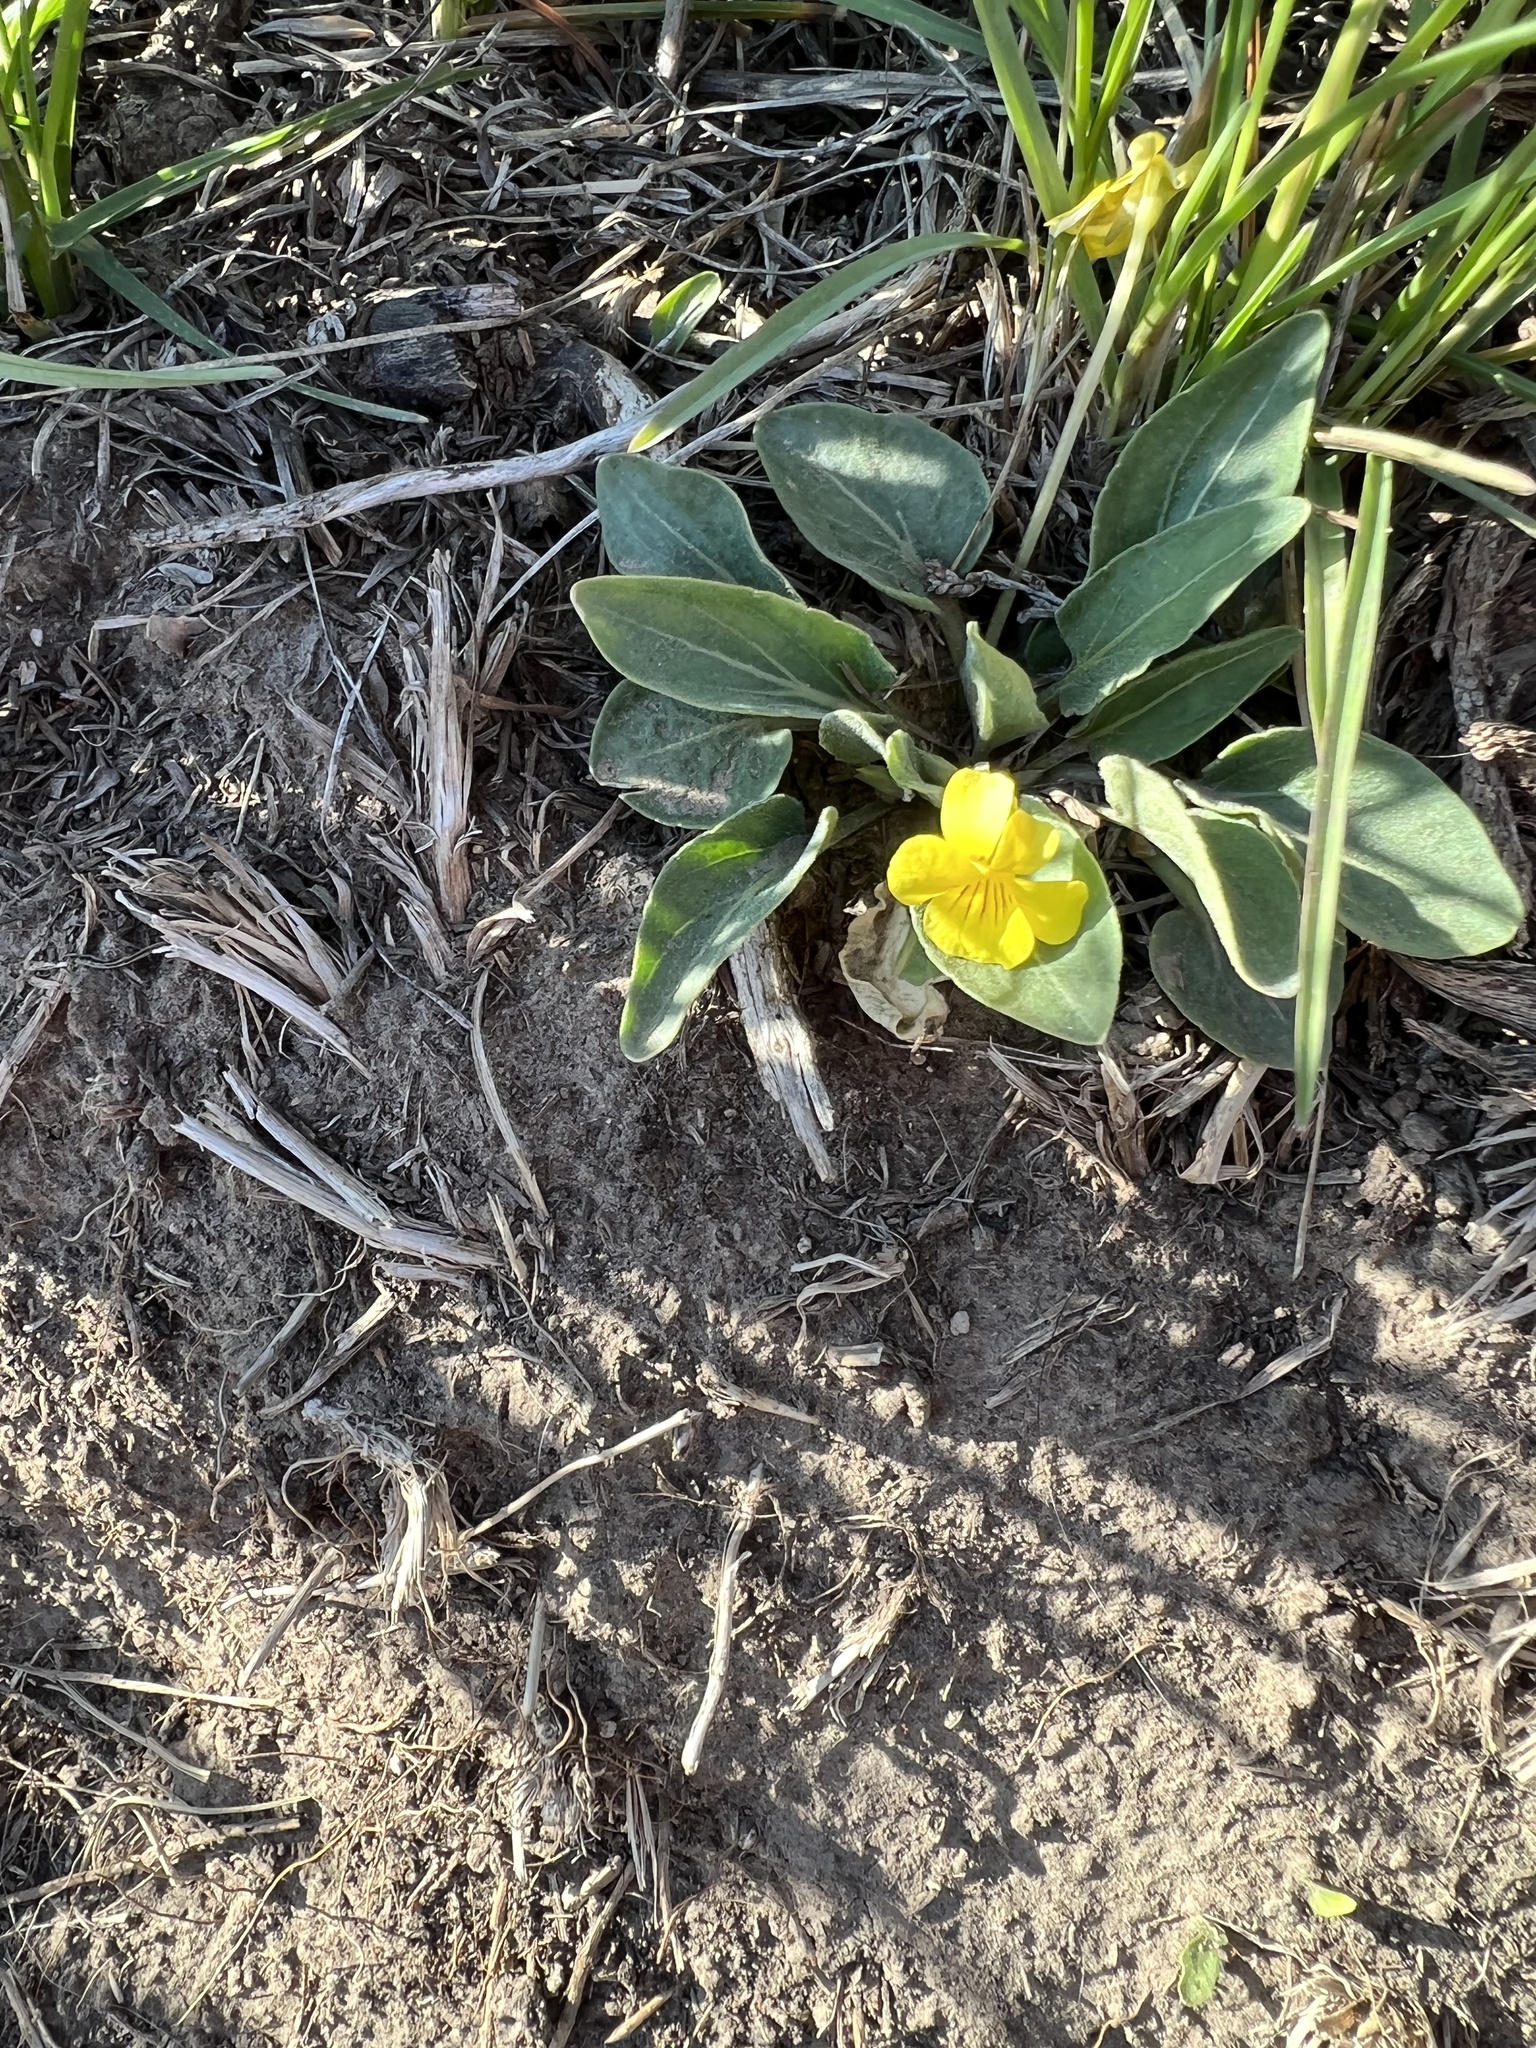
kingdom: Plantae
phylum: Tracheophyta
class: Magnoliopsida
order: Malpighiales
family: Violaceae
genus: Viola
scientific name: Viola vallicola
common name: Valley violet
